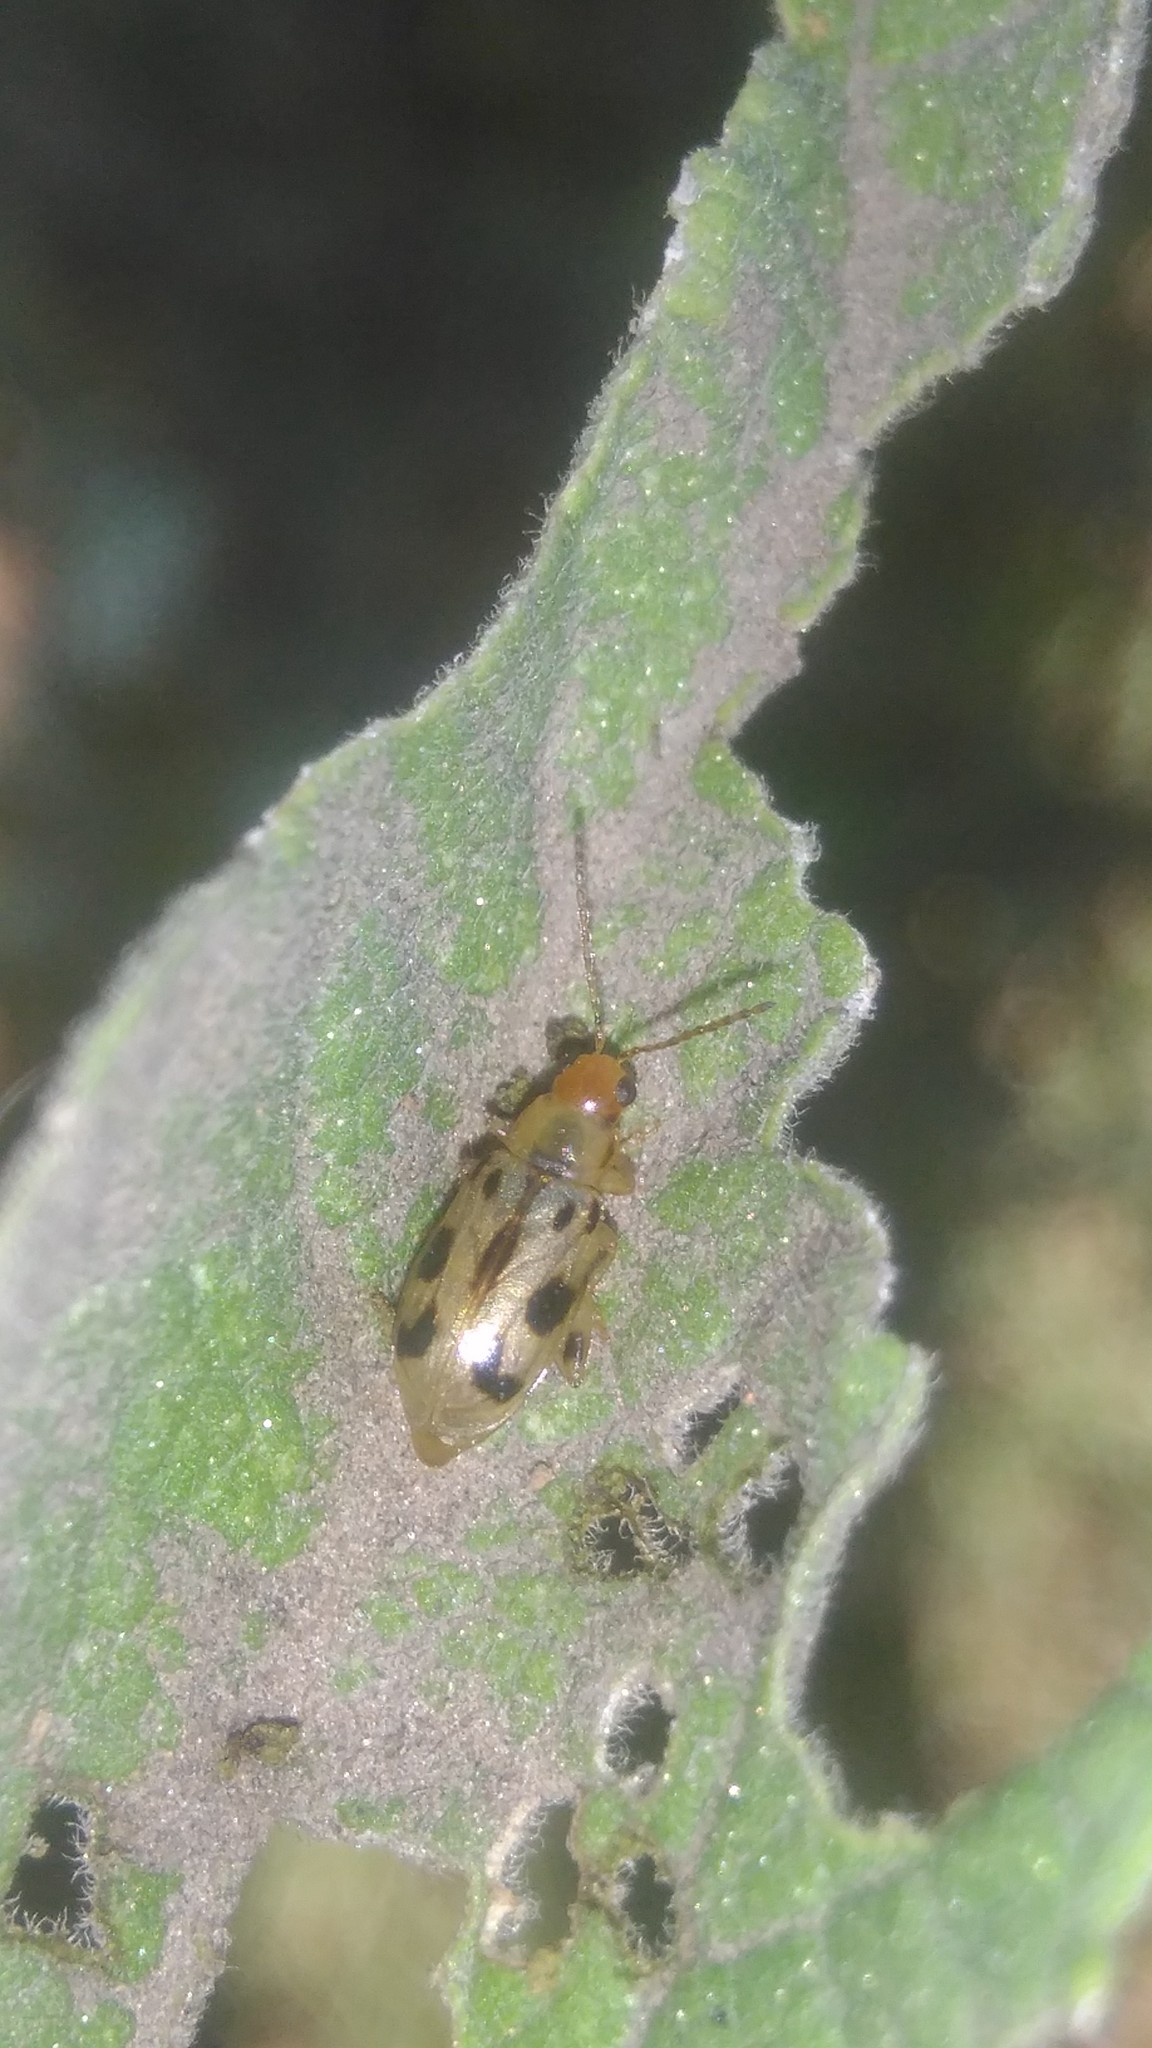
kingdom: Animalia
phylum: Arthropoda
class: Insecta
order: Coleoptera
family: Chrysomelidae
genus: Systena
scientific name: Systena
